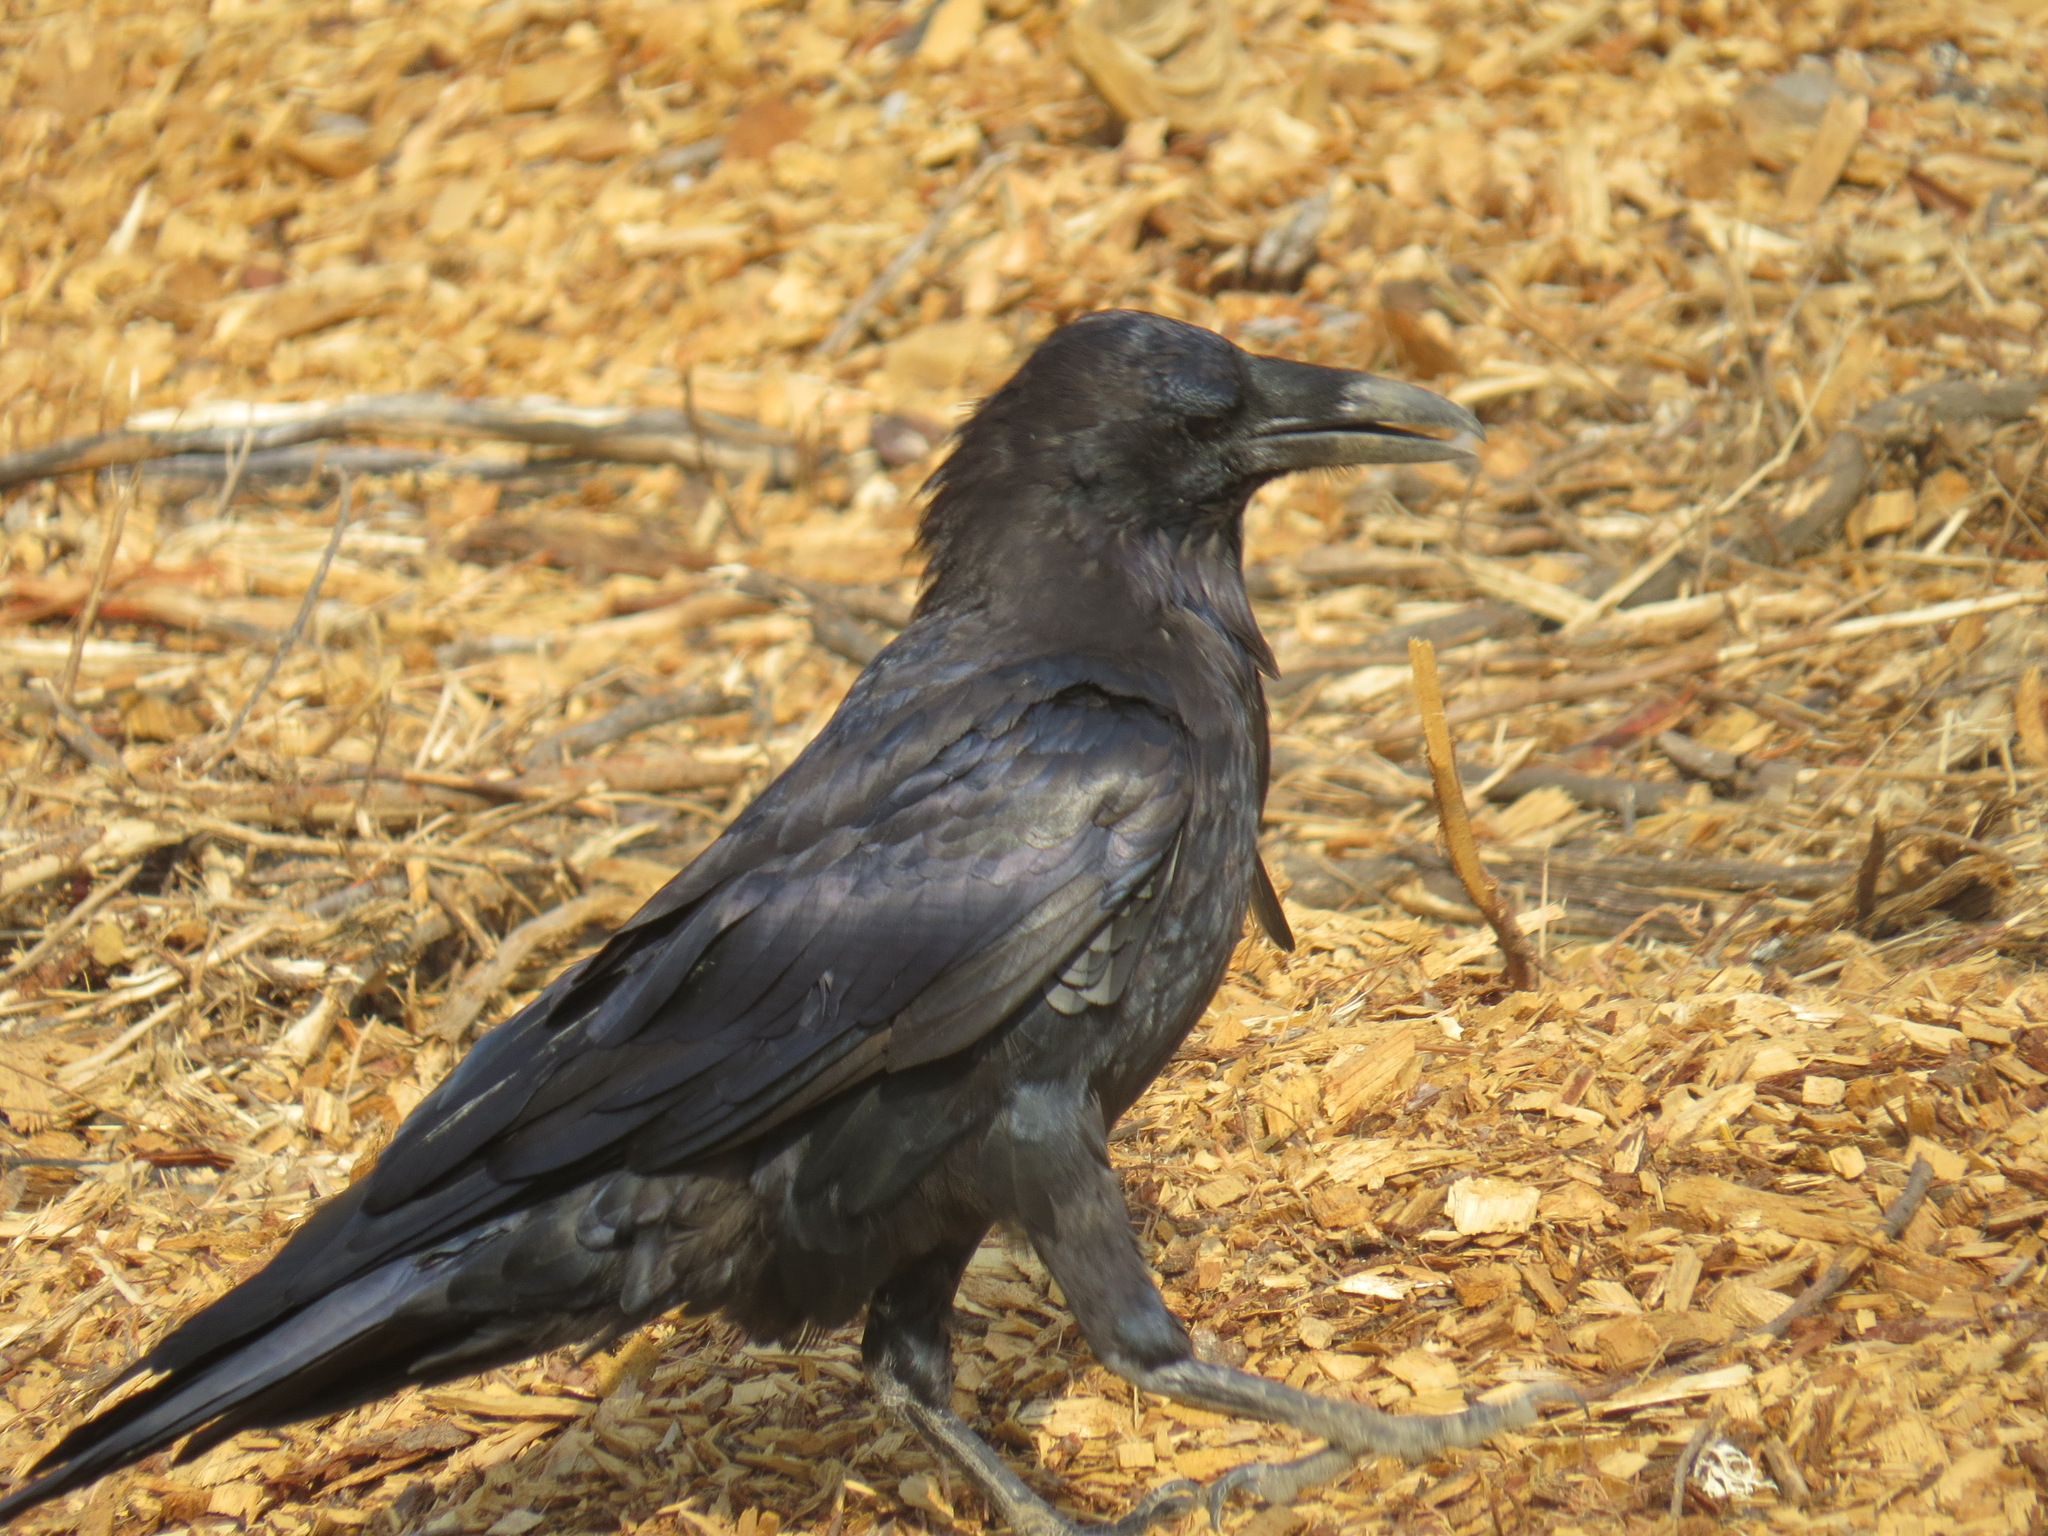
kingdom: Animalia
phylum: Chordata
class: Aves
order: Passeriformes
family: Corvidae
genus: Corvus
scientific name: Corvus corax
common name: Common raven
